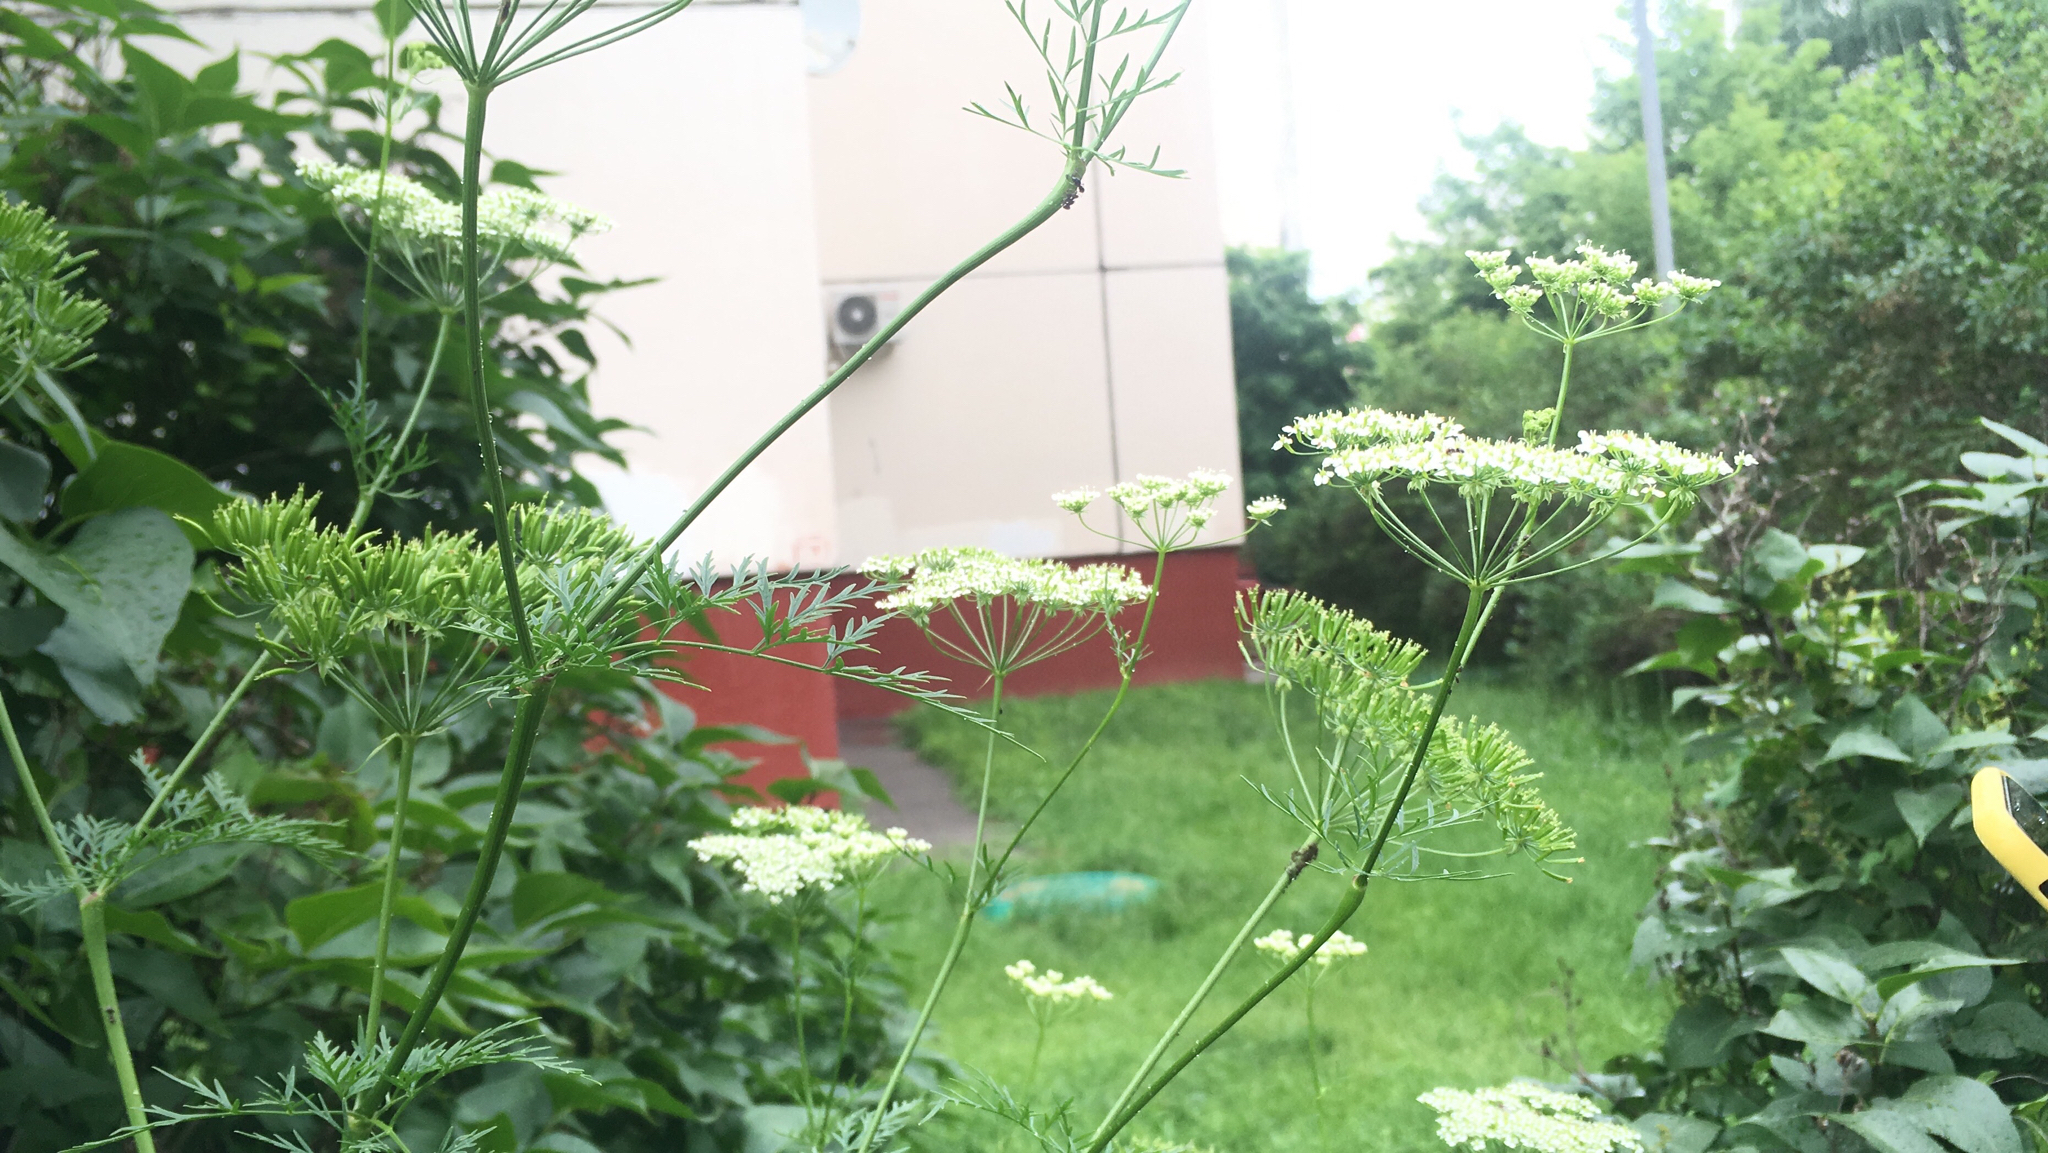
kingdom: Plantae
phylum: Tracheophyta
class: Magnoliopsida
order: Apiales
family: Apiaceae
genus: Chaerophyllum
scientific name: Chaerophyllum prescottii
